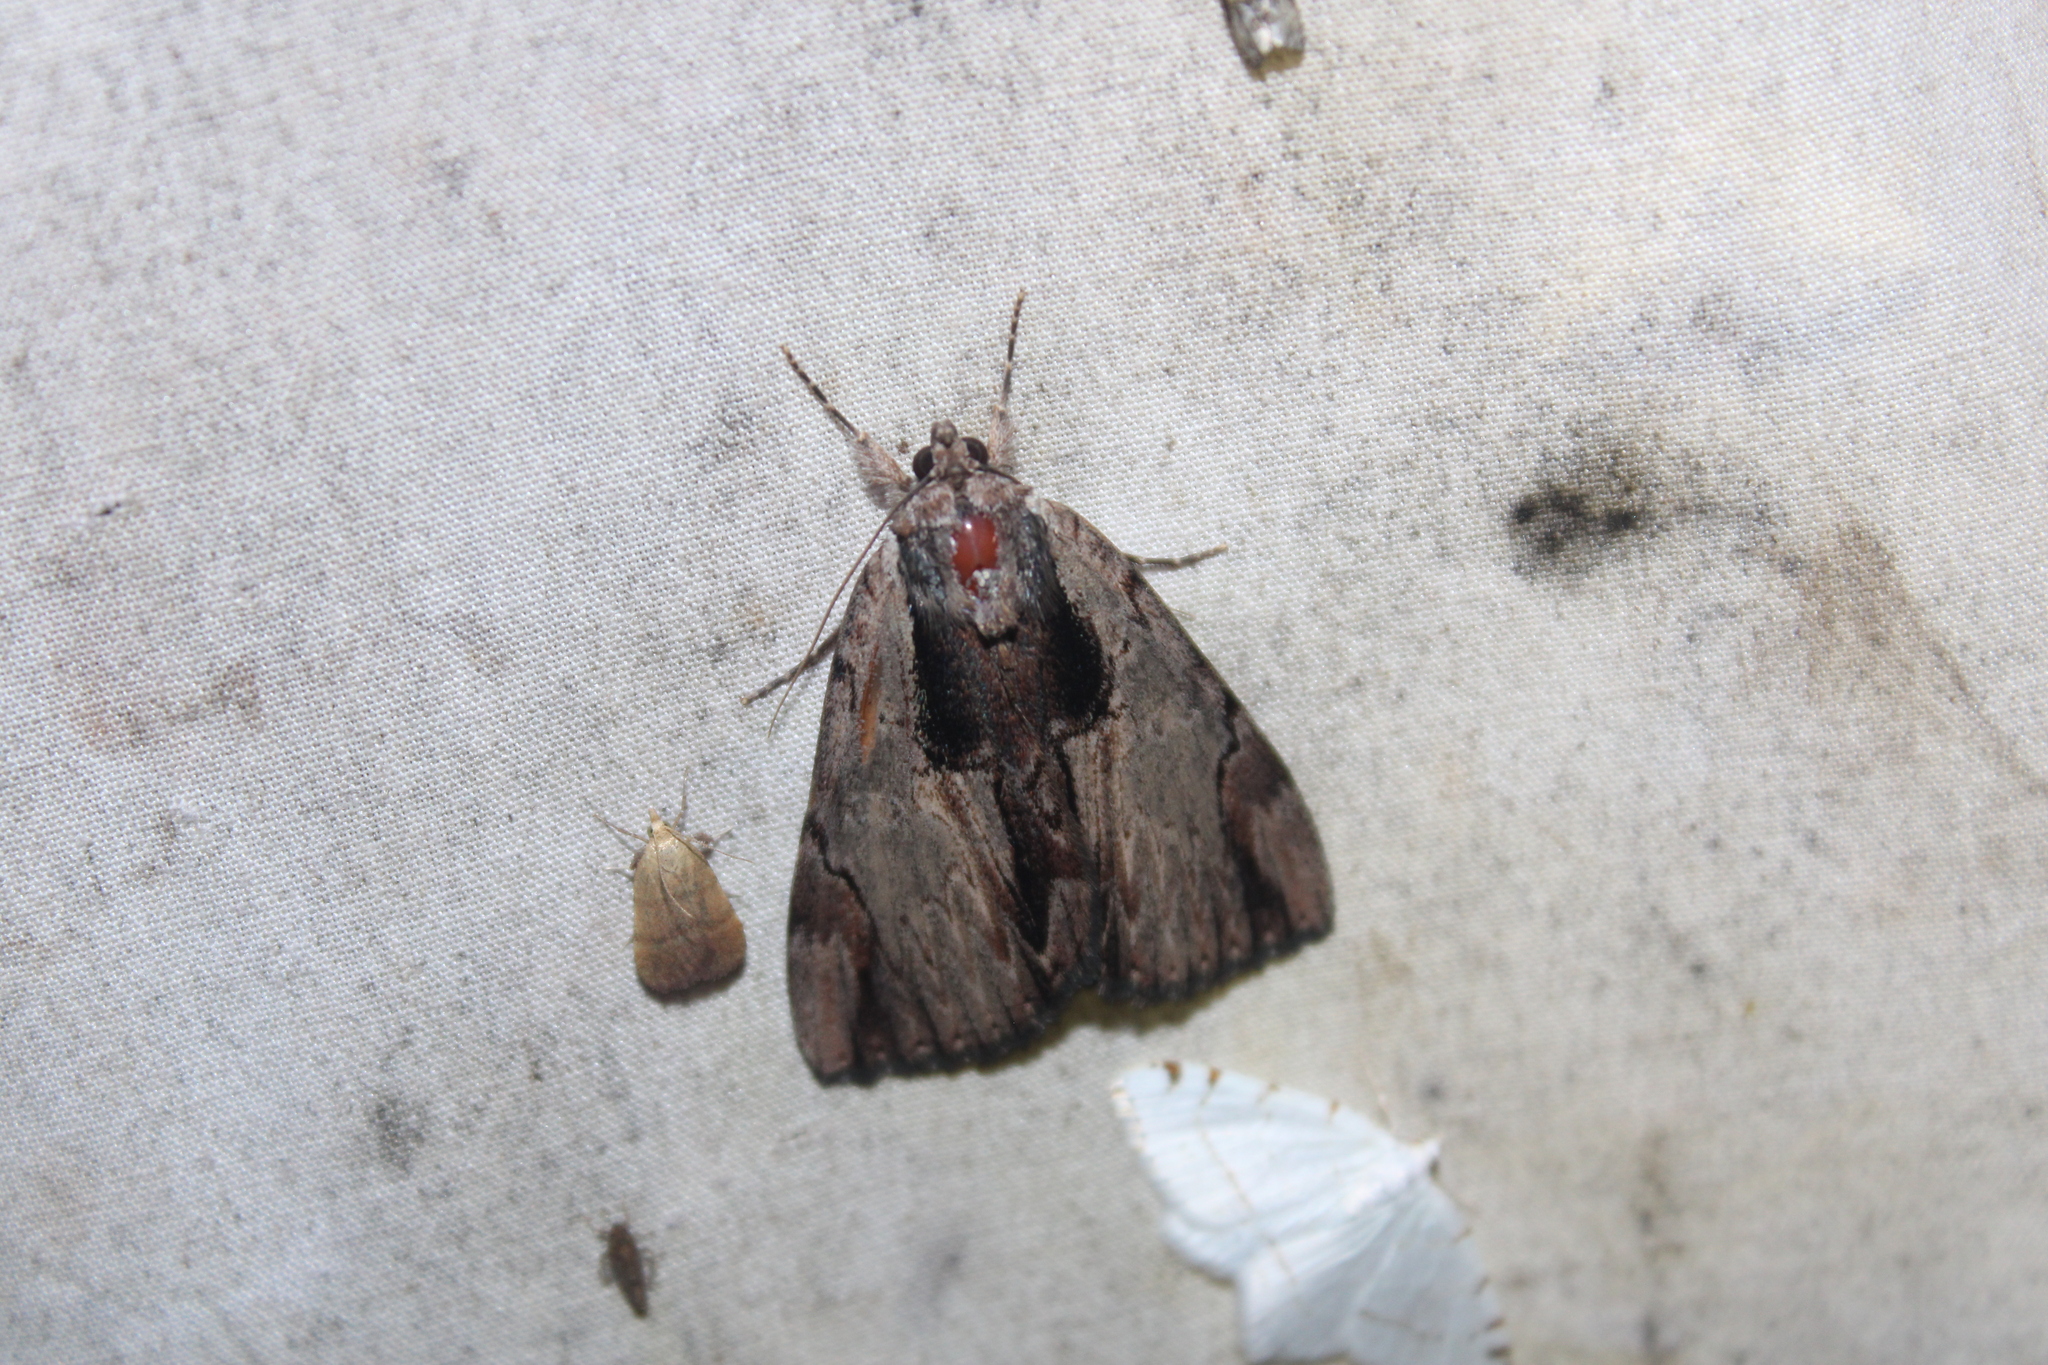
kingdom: Animalia
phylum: Arthropoda
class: Insecta
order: Lepidoptera
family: Erebidae
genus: Catocala
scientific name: Catocala ultronia
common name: Ultronia underwing
